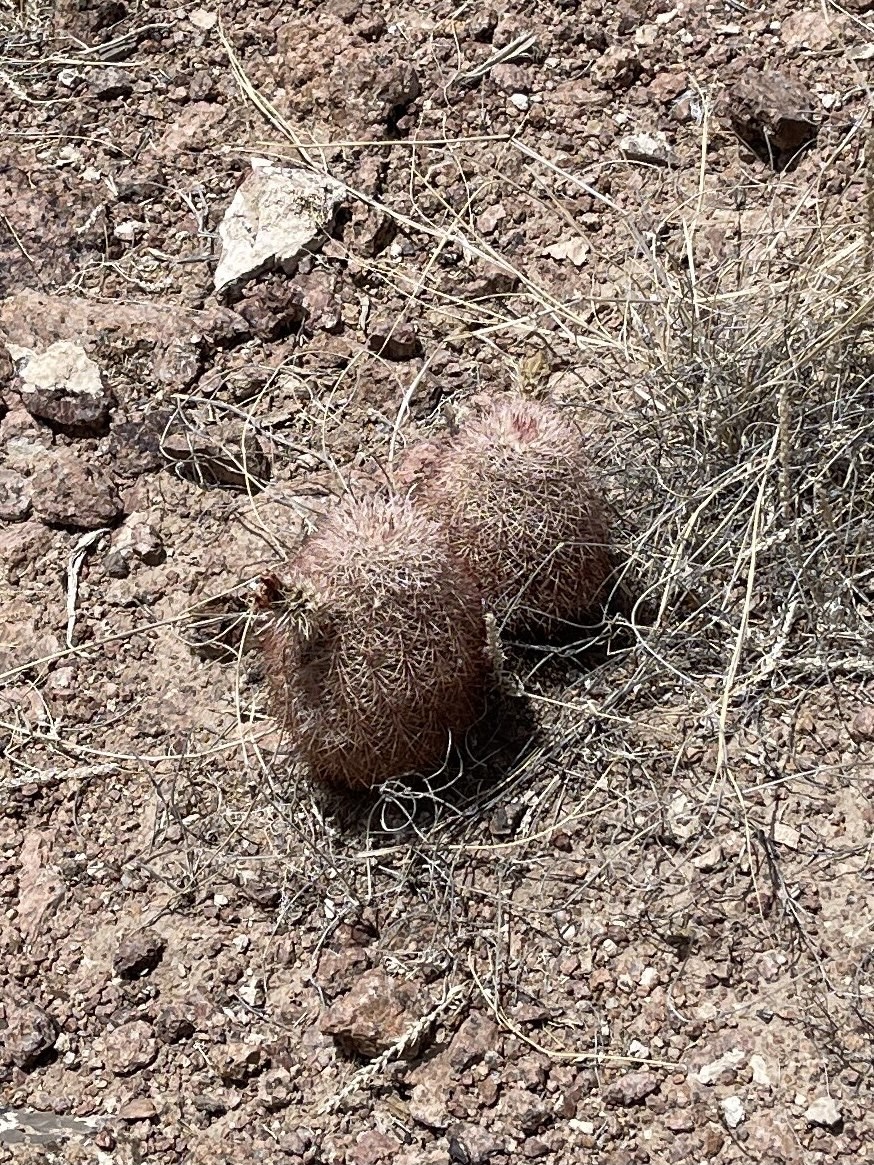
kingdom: Plantae
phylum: Tracheophyta
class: Magnoliopsida
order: Caryophyllales
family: Cactaceae
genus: Echinocereus
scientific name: Echinocereus dasyacanthus
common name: Spiny hedgehog cactus
